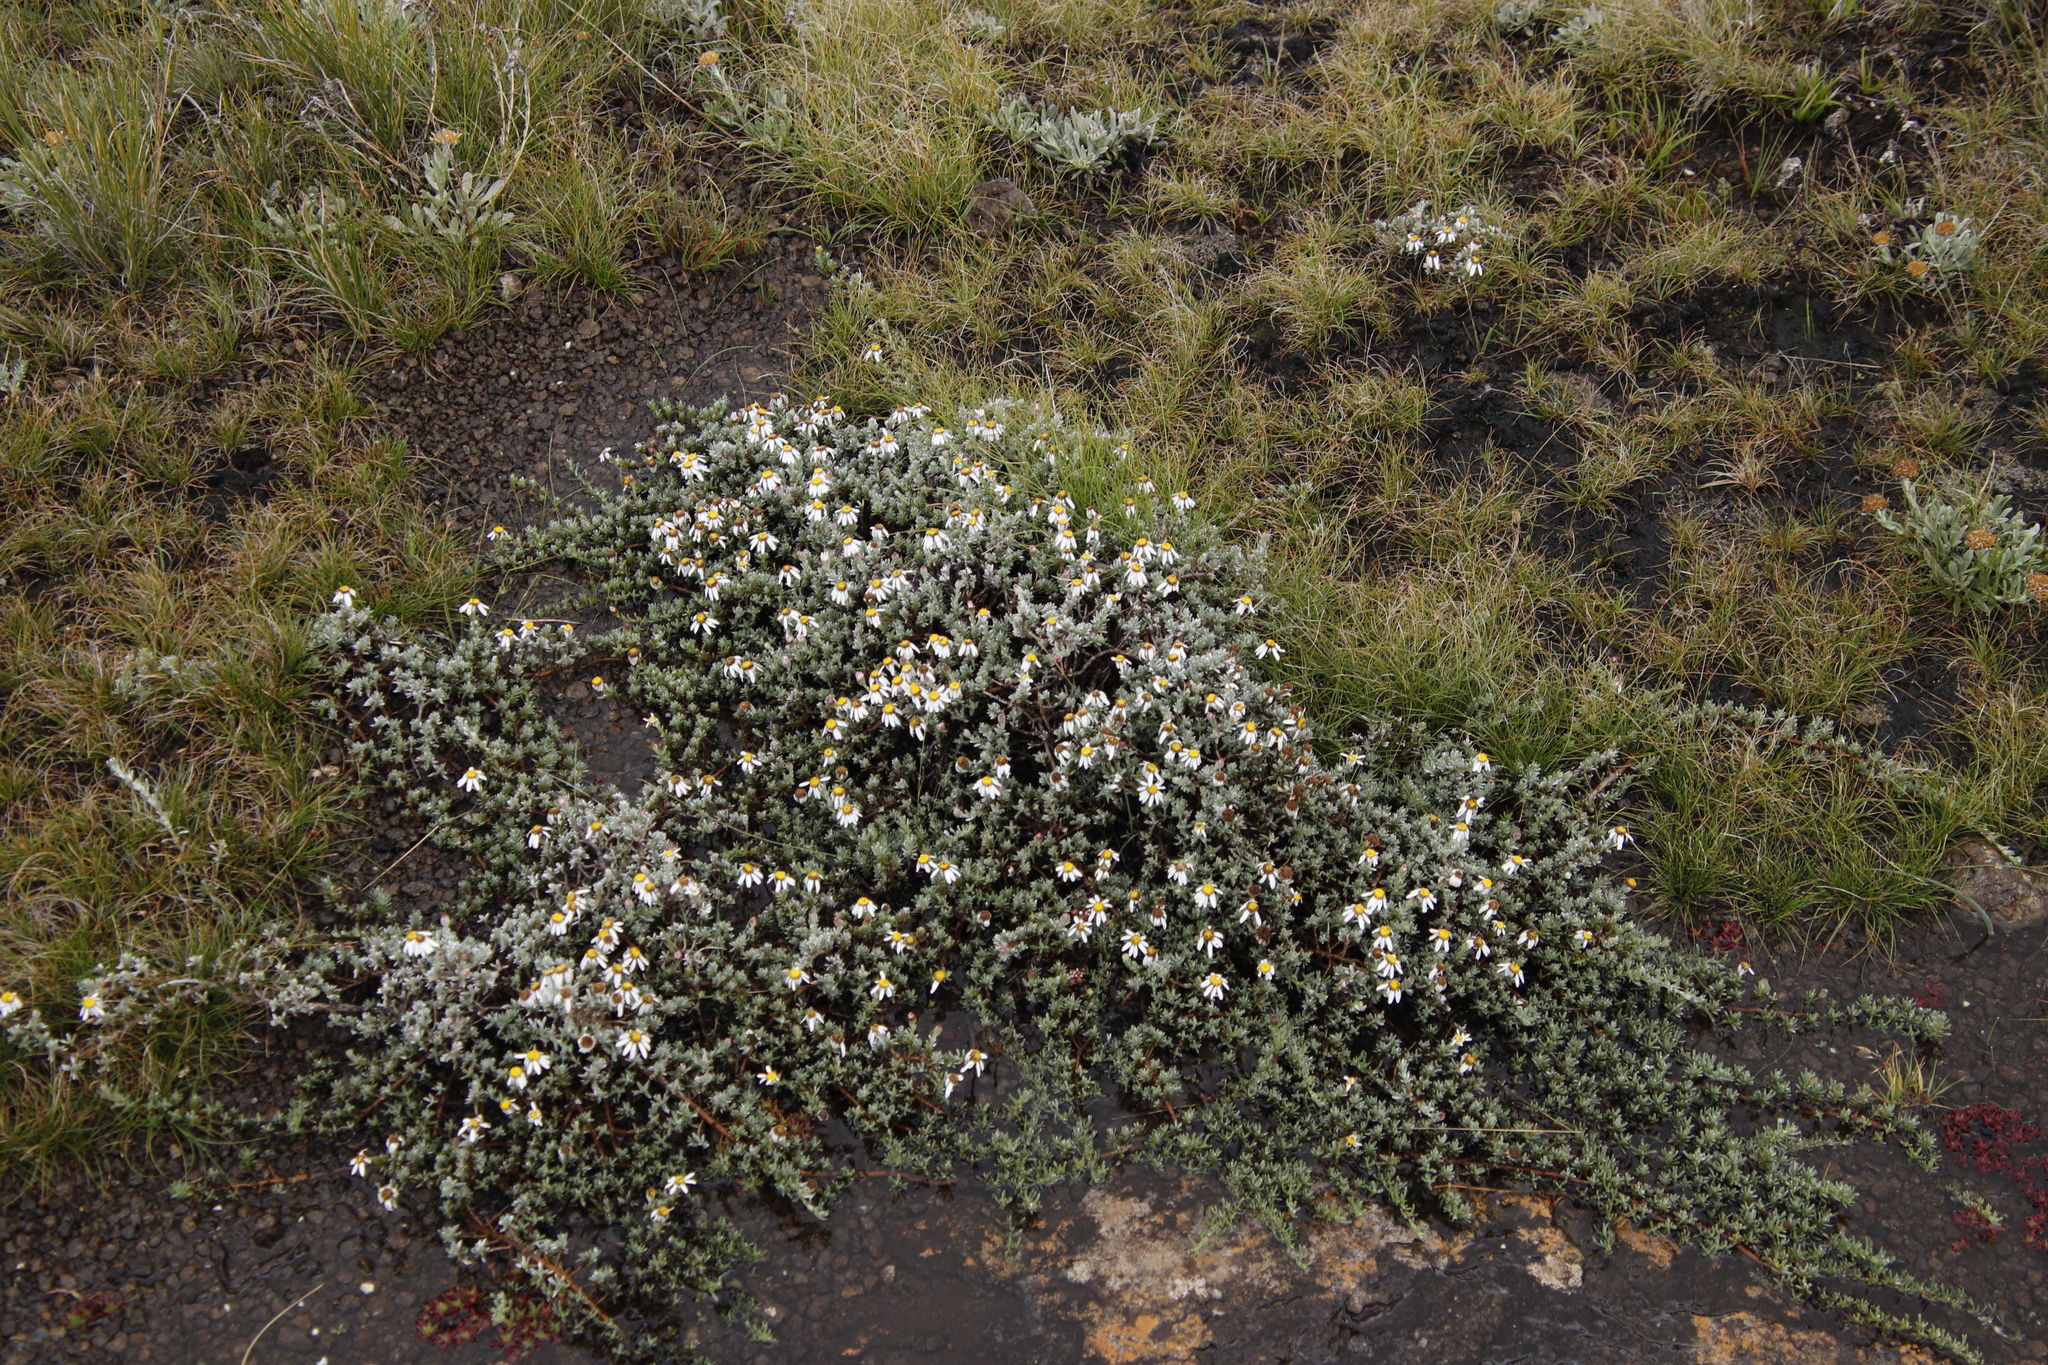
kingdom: Plantae
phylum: Tracheophyta
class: Magnoliopsida
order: Asterales
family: Asteraceae
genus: Eumorphia
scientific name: Eumorphia prostrata
